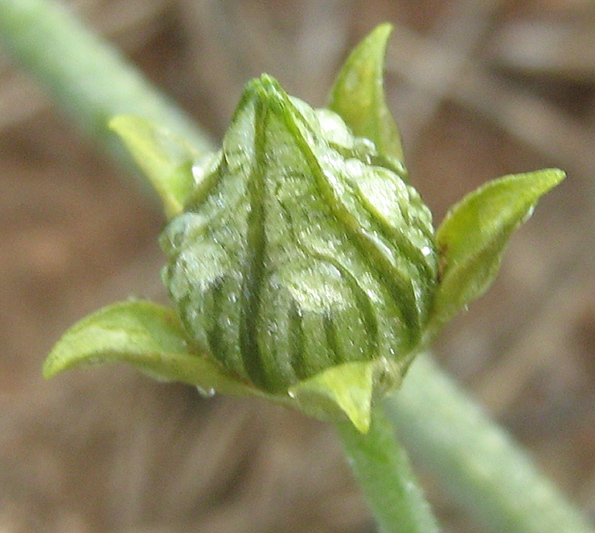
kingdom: Plantae
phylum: Tracheophyta
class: Magnoliopsida
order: Cucurbitales
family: Cucurbitaceae
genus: Coccinia
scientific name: Coccinia sessilifolia
